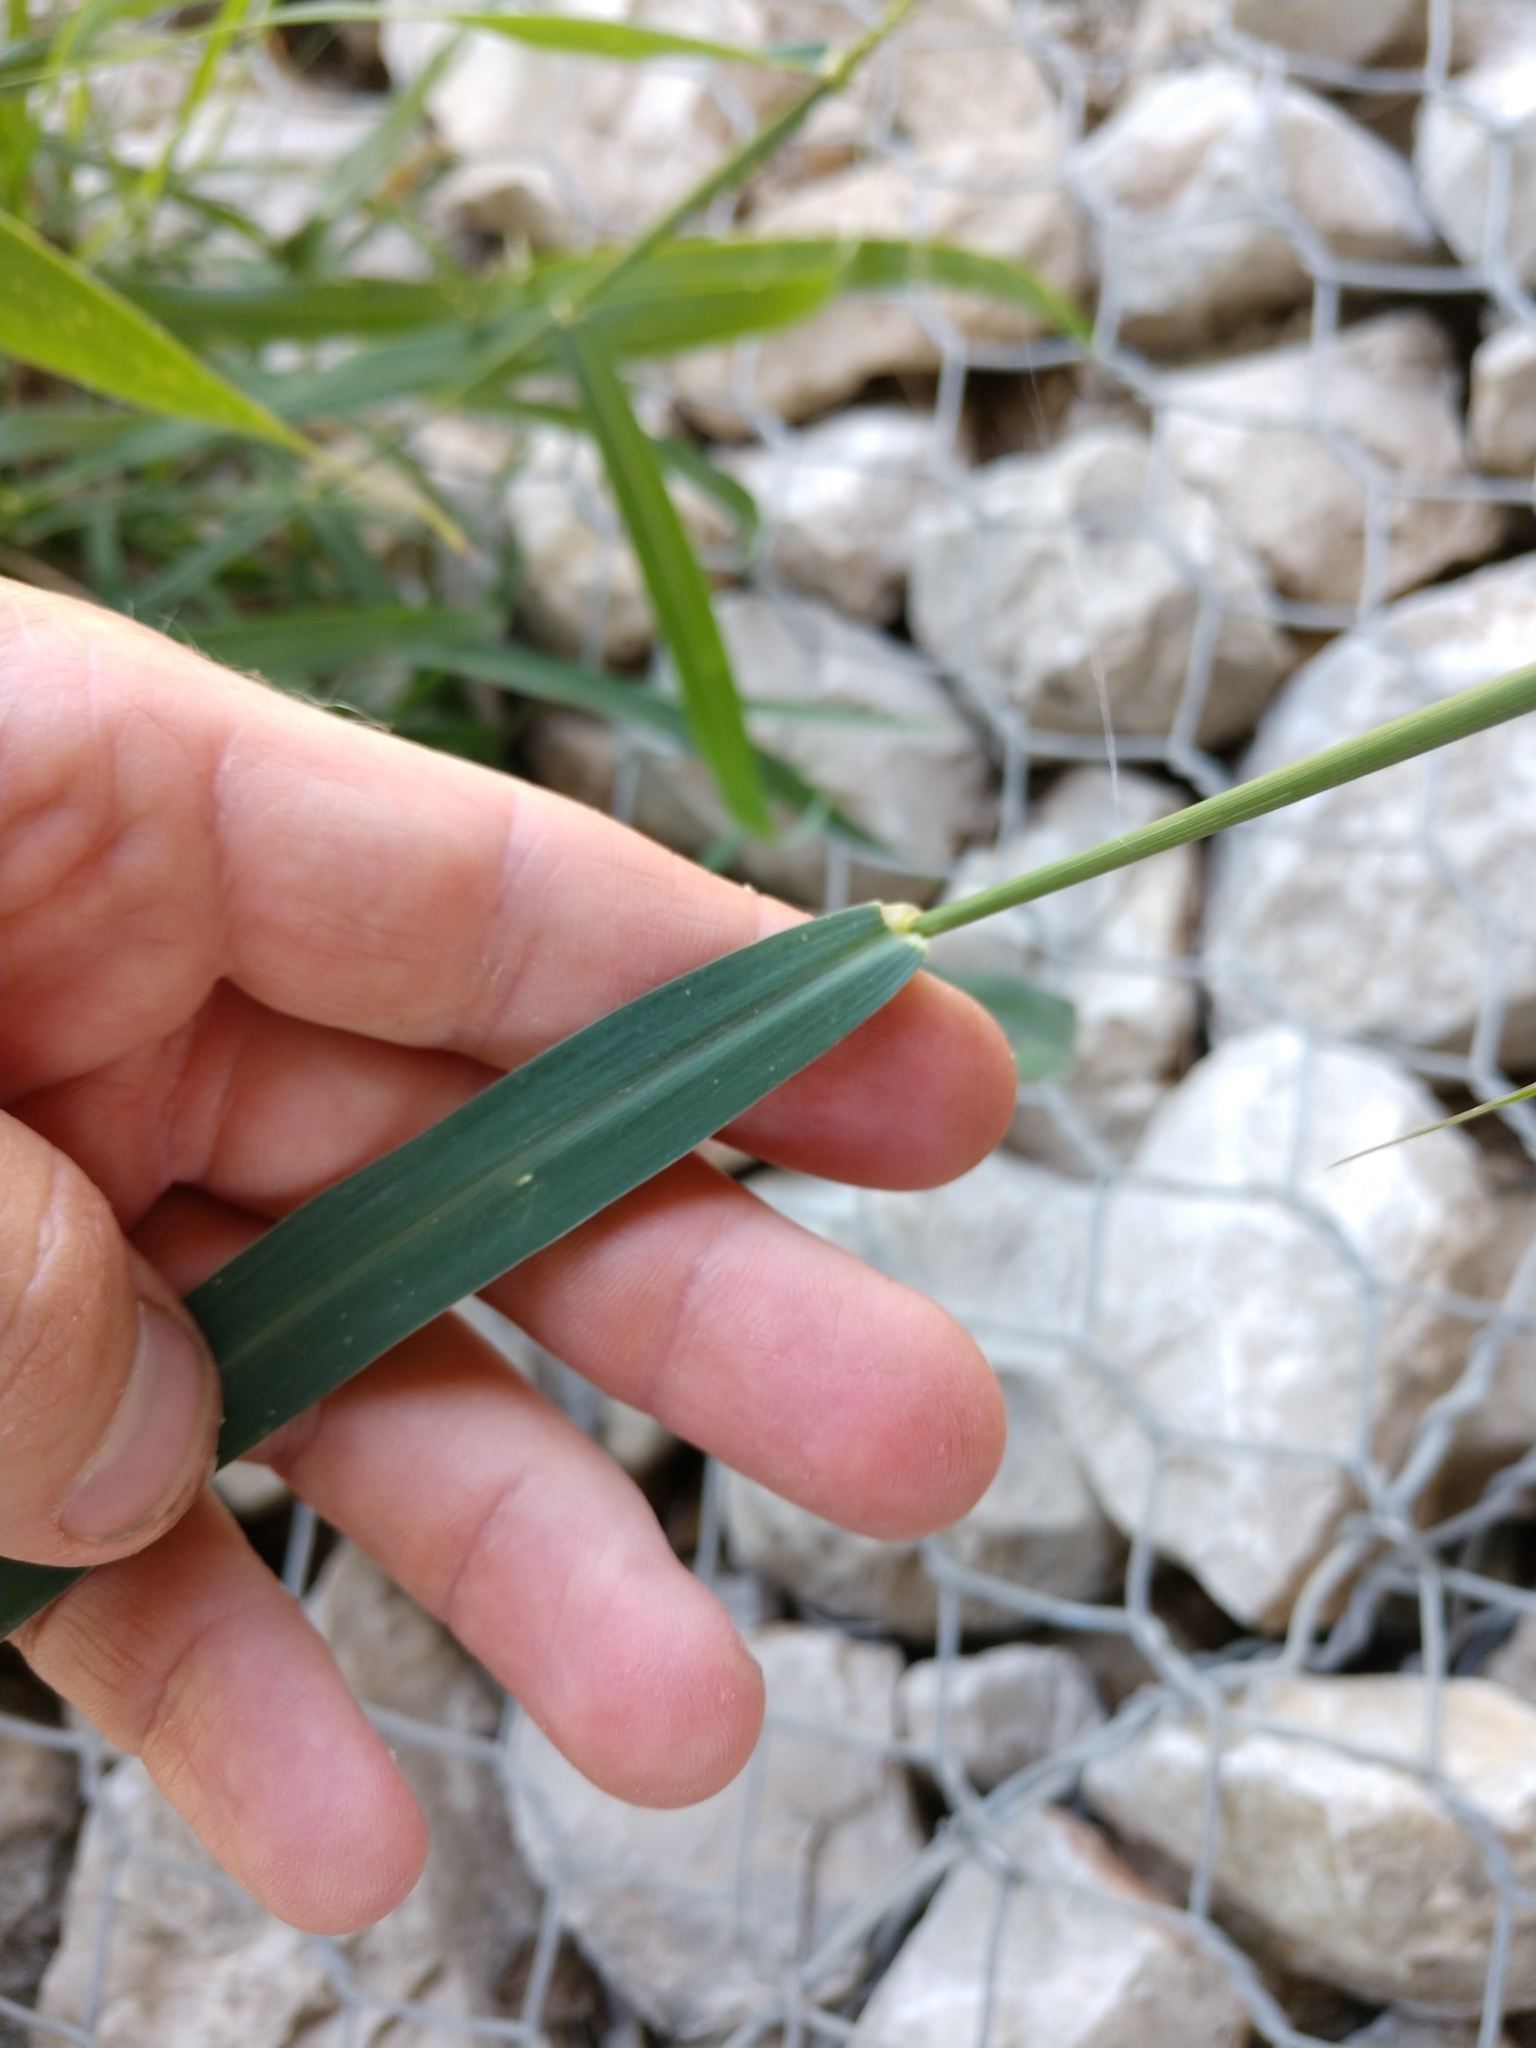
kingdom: Plantae
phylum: Tracheophyta
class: Liliopsida
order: Poales
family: Poaceae
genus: Megathyrsus
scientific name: Megathyrsus maximus
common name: Guineagrass
